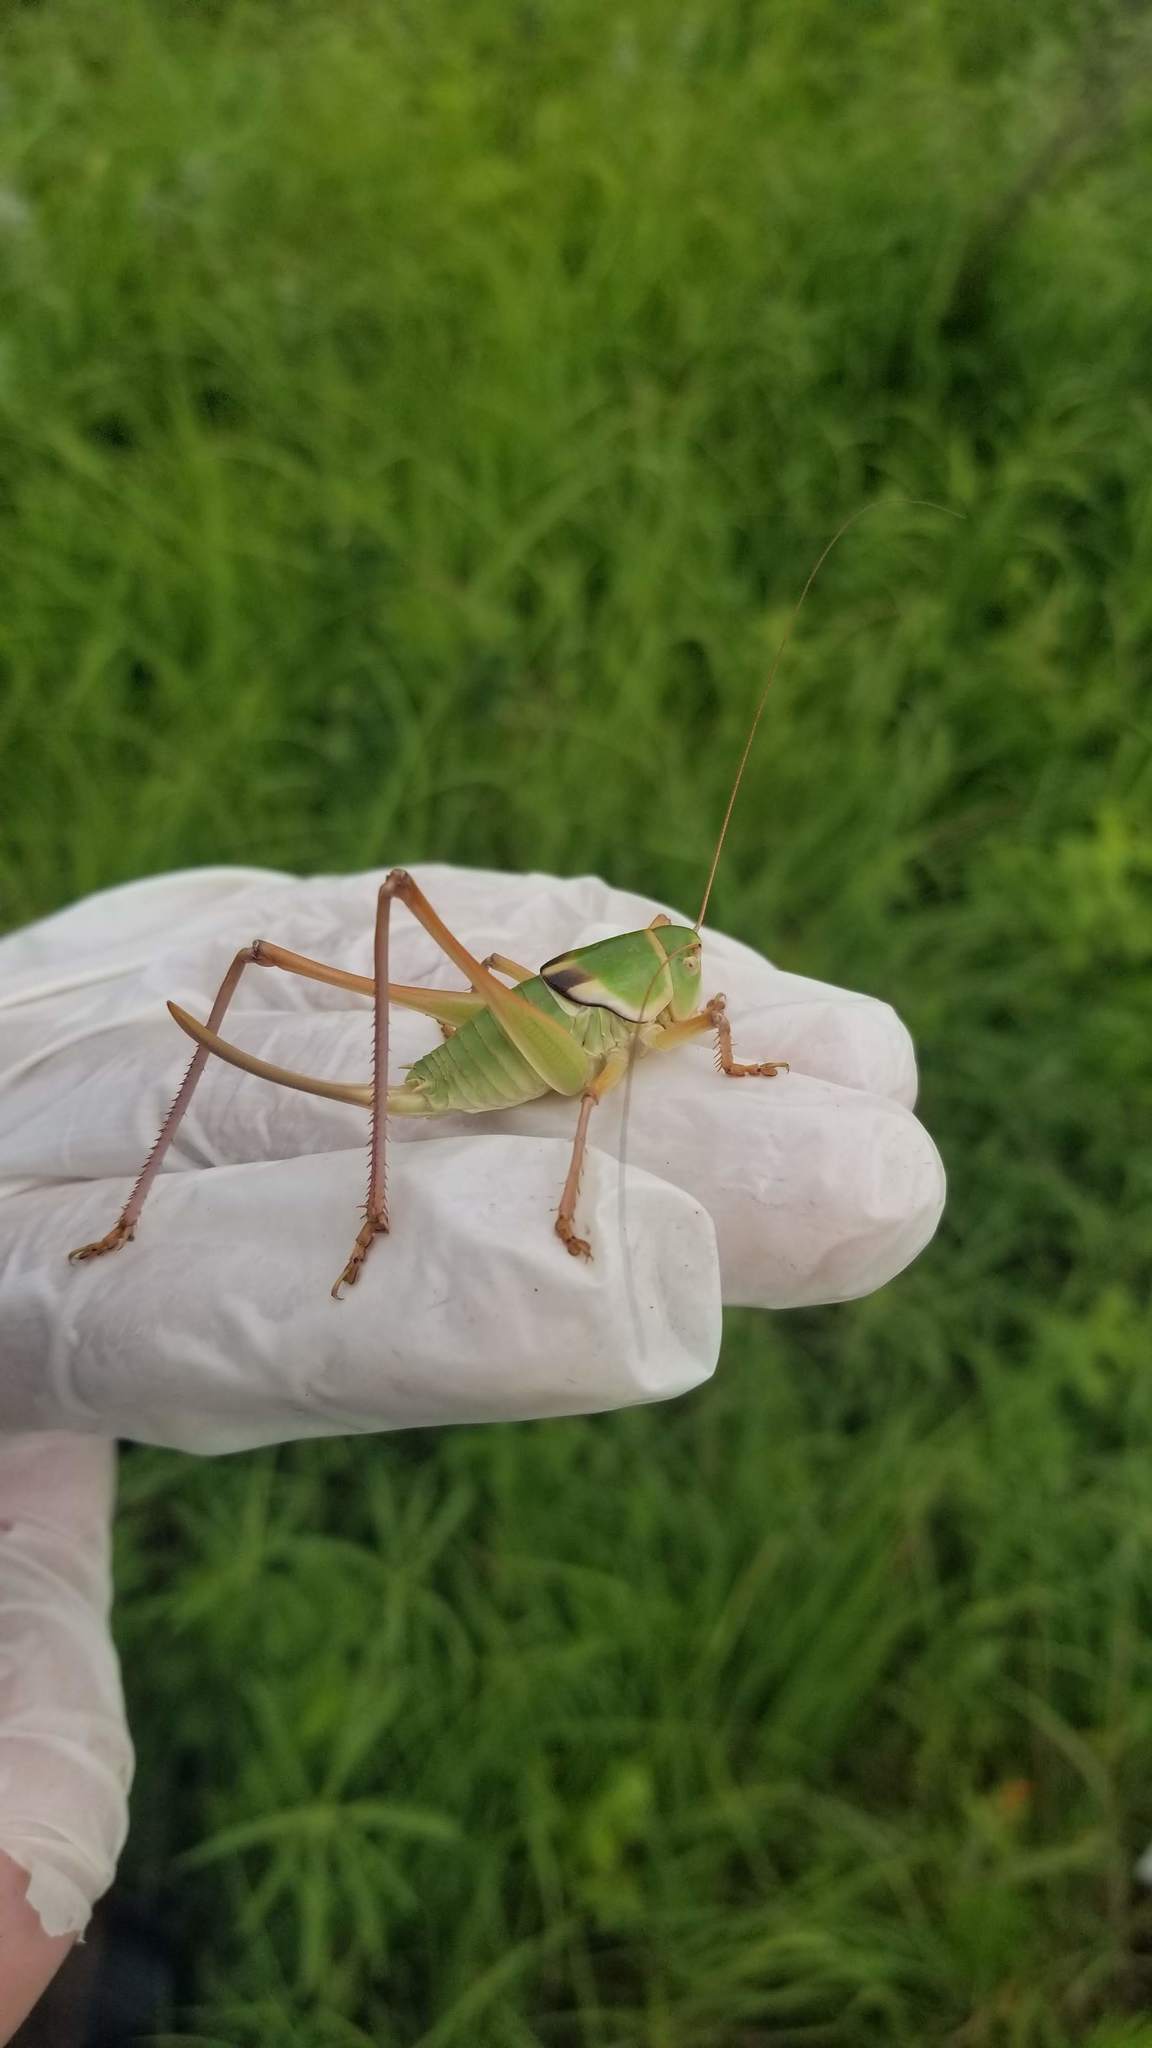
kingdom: Animalia
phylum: Arthropoda
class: Insecta
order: Orthoptera
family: Tettigoniidae
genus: Pediodectes
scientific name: Pediodectes haldemanii
